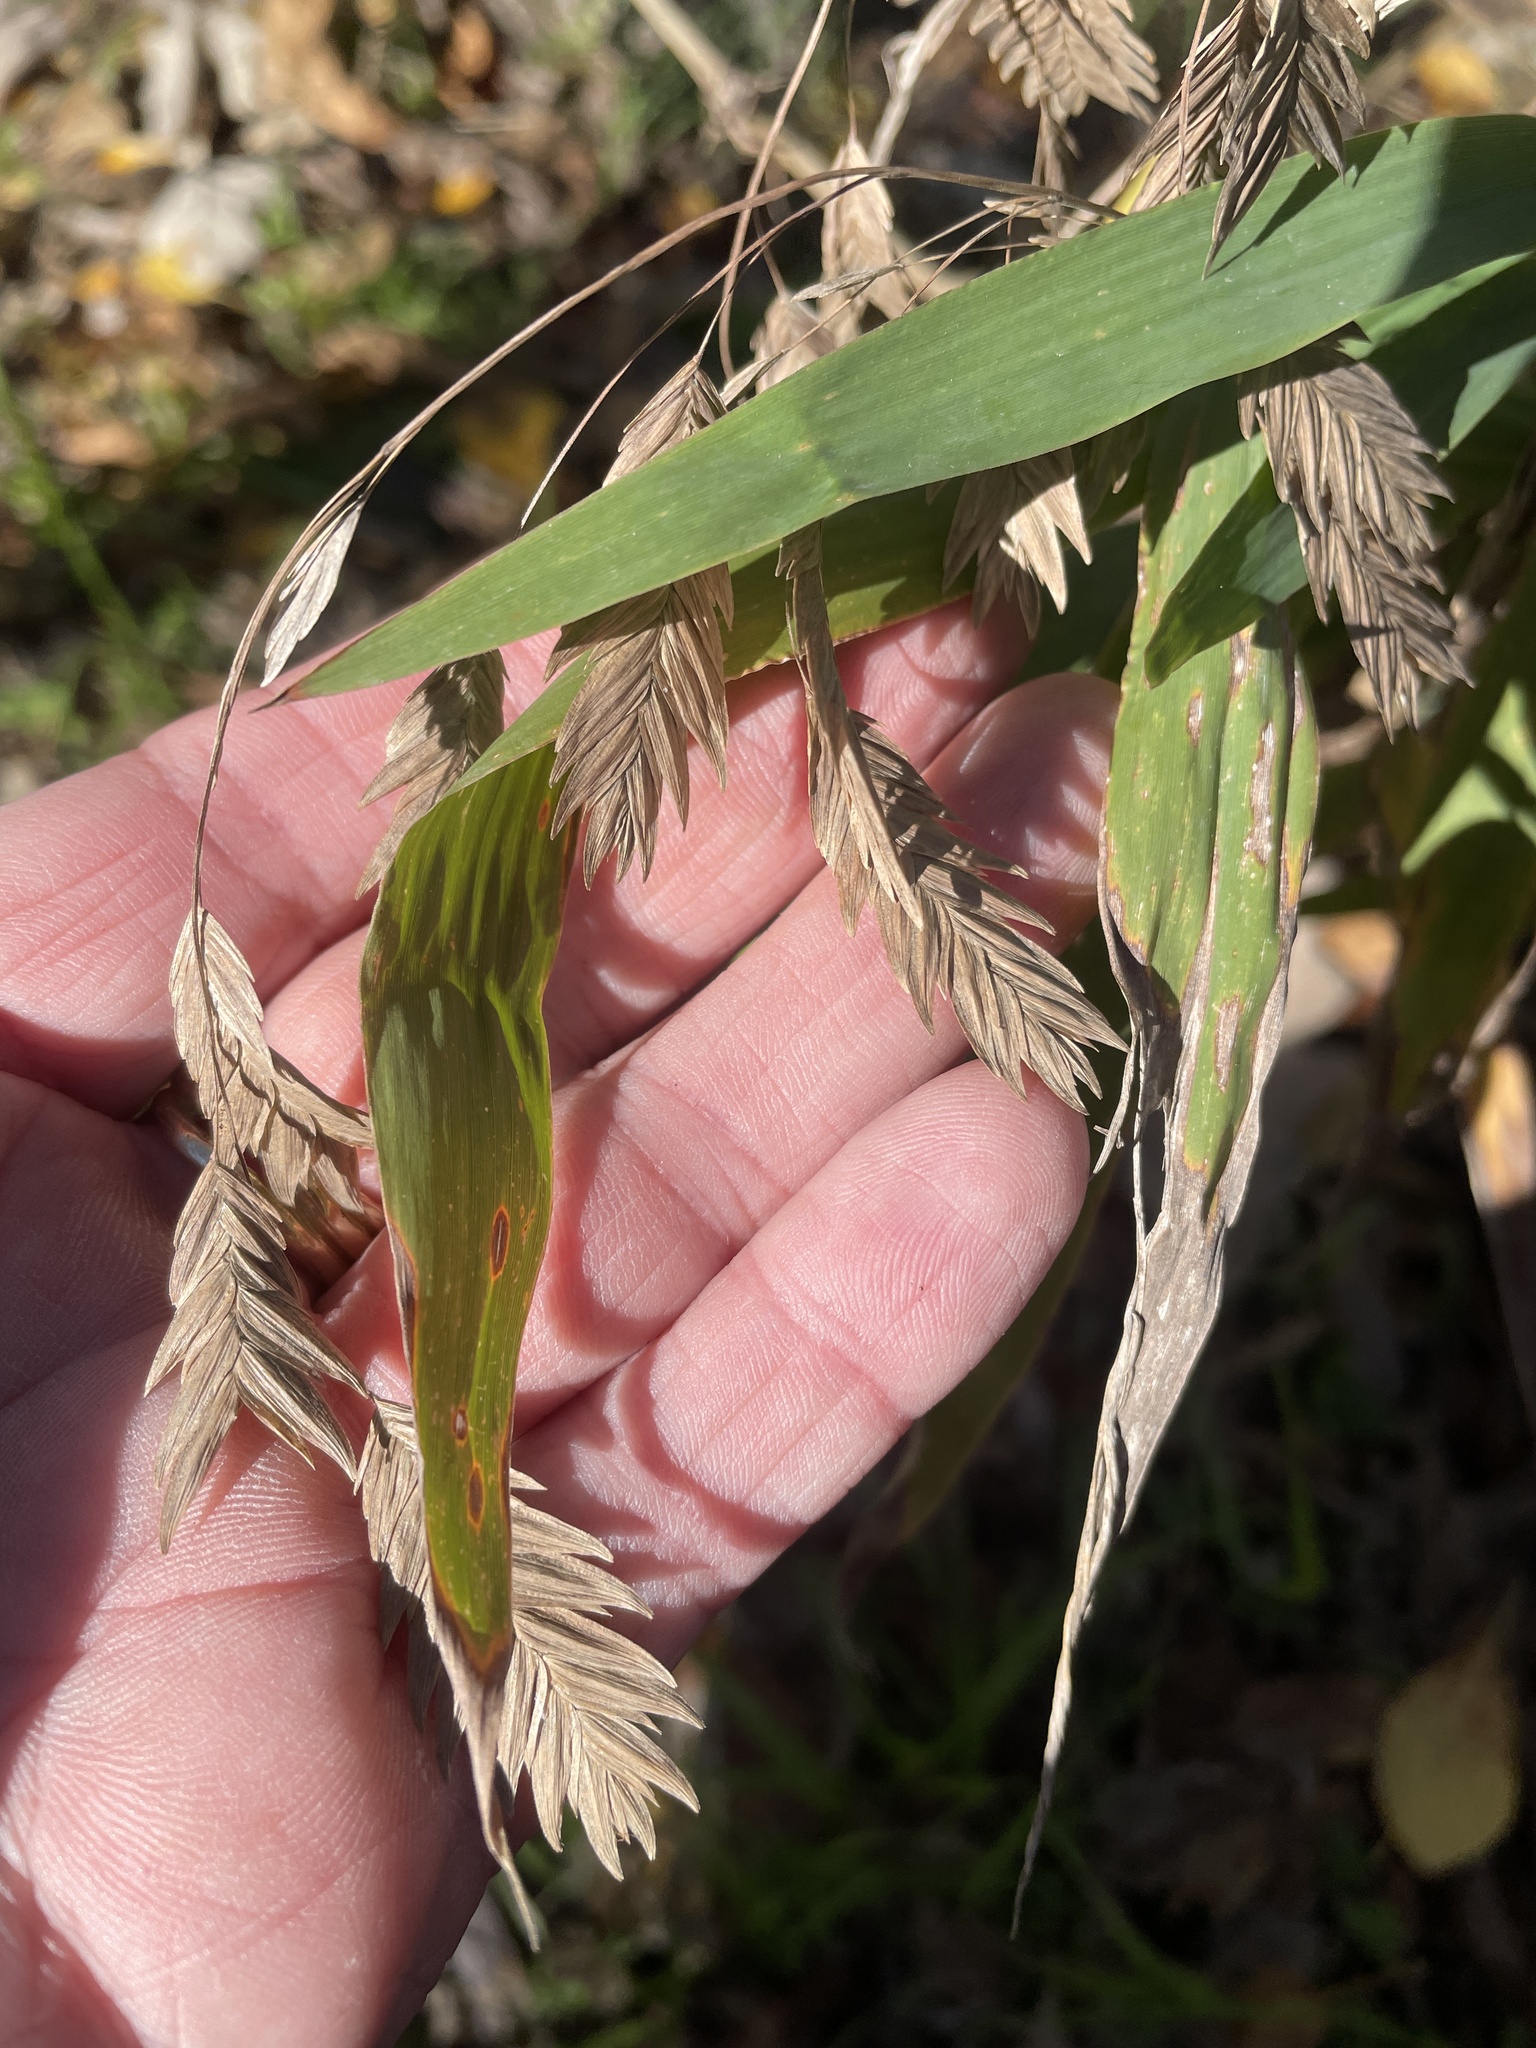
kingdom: Plantae
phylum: Tracheophyta
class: Liliopsida
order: Poales
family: Poaceae
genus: Chasmanthium
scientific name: Chasmanthium latifolium
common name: Broad-leaved chasmanthium
